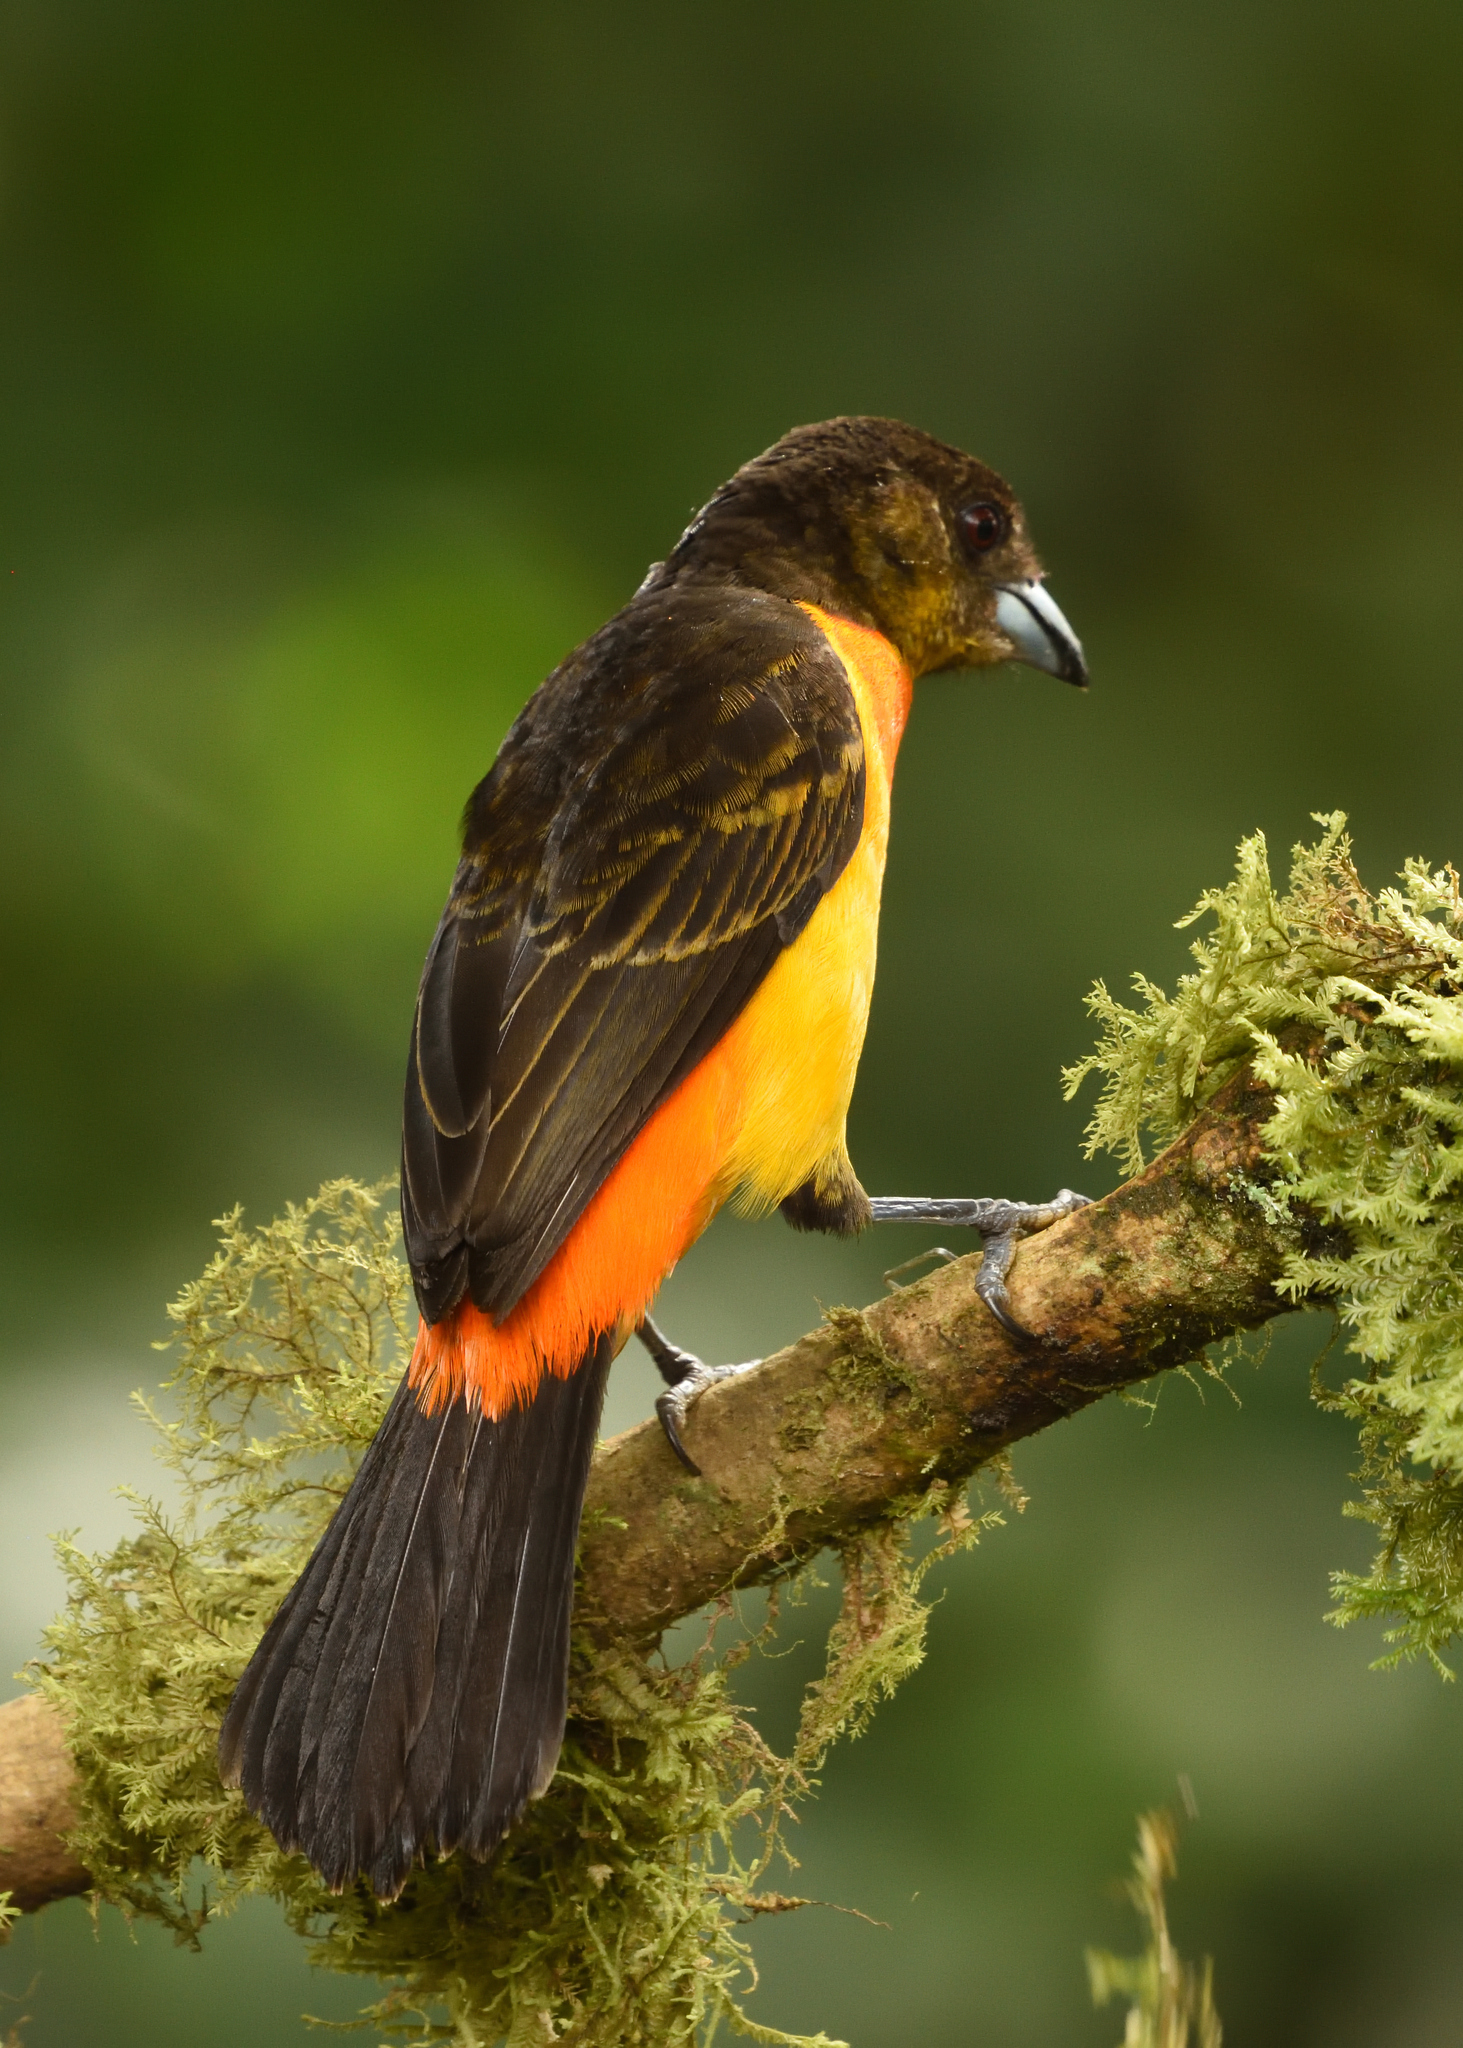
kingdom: Animalia
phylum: Chordata
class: Aves
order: Passeriformes
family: Thraupidae
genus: Ramphocelus
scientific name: Ramphocelus flammigerus
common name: Flame-rumped tanager
